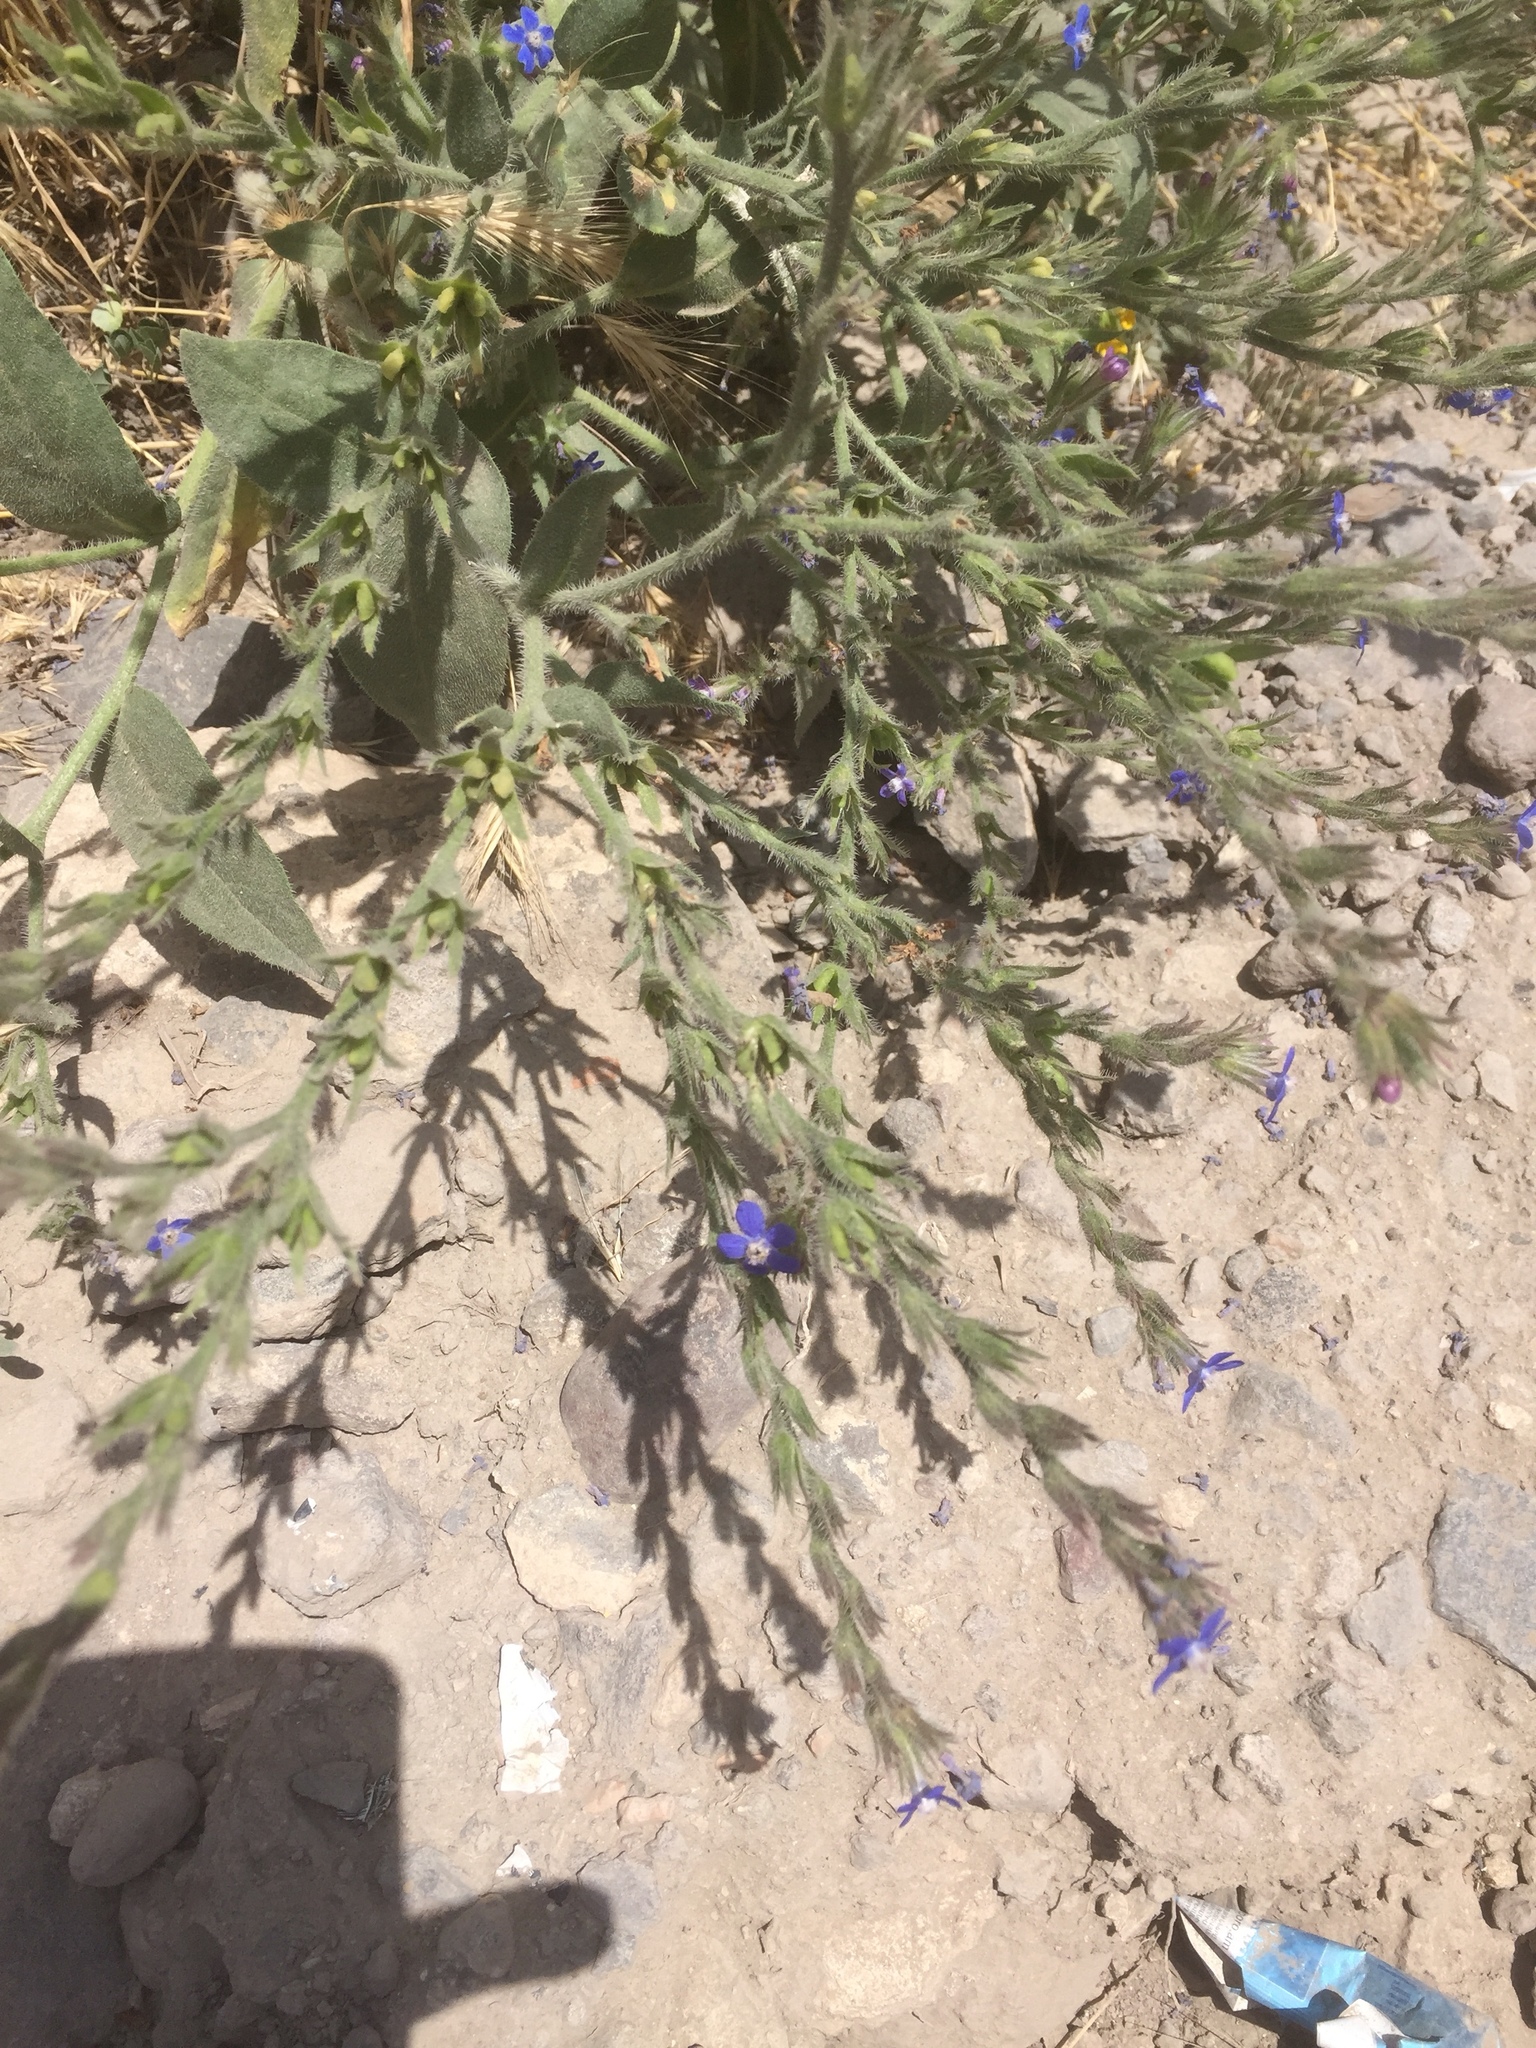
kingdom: Plantae
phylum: Tracheophyta
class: Magnoliopsida
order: Boraginales
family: Boraginaceae
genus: Anchusa
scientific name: Anchusa azurea
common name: Garden anchusa
